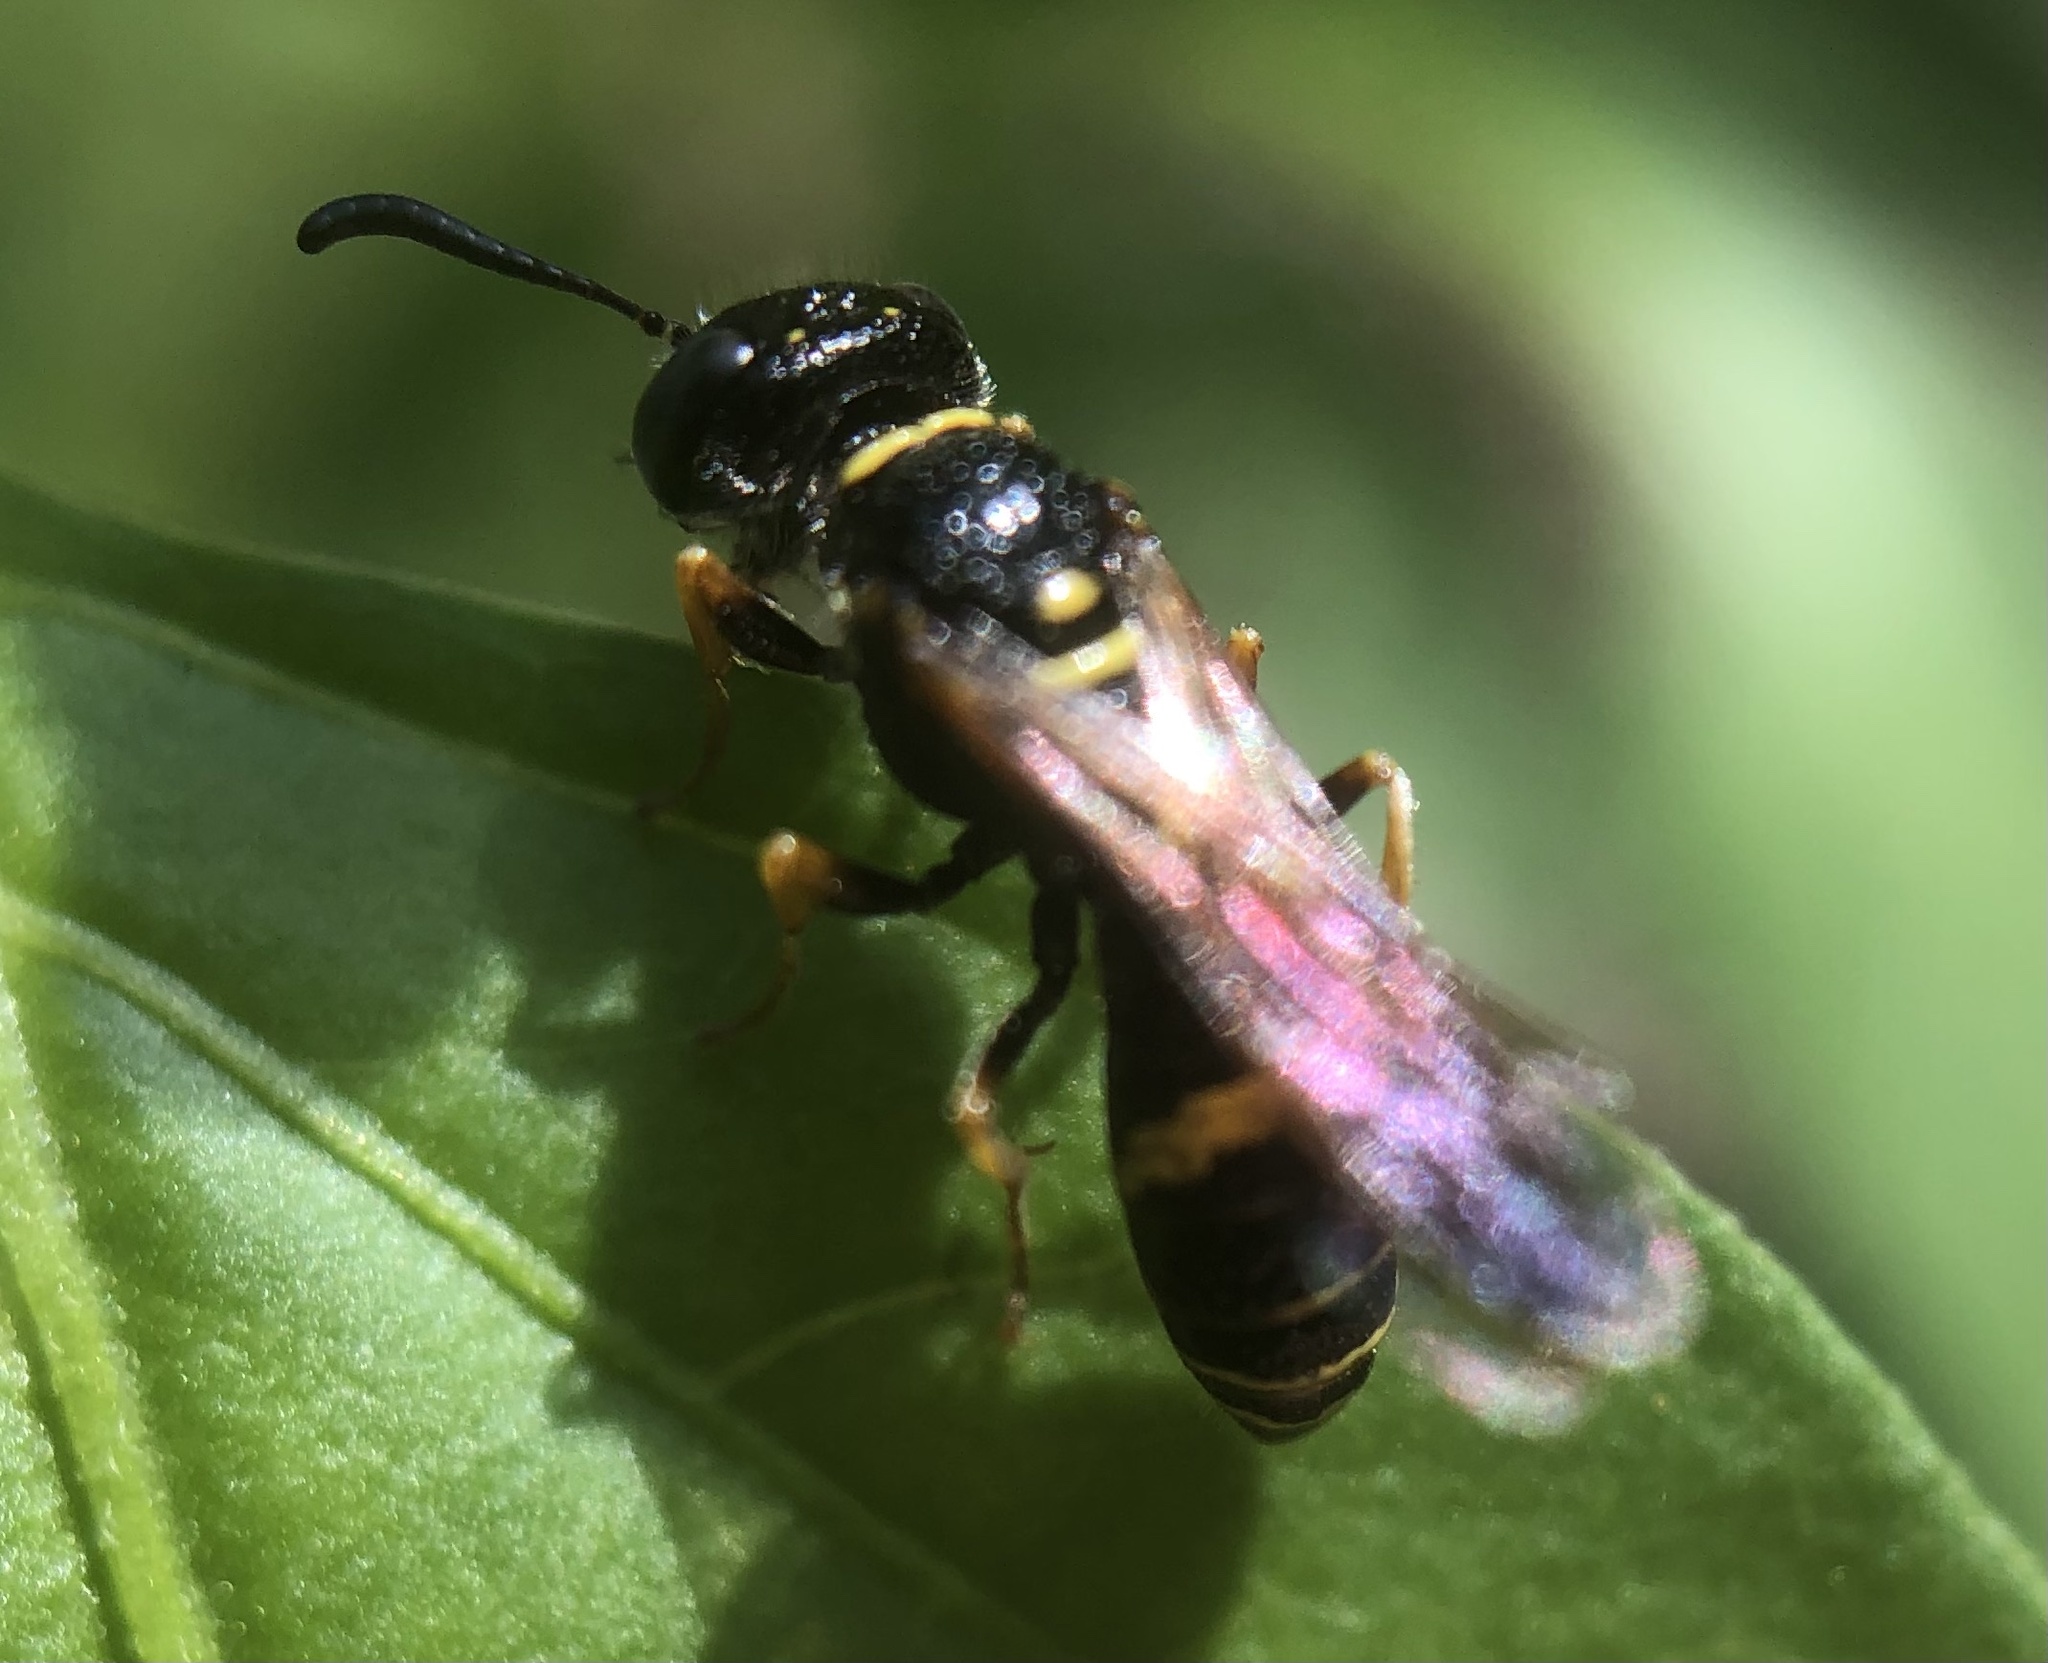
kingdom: Animalia
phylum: Arthropoda
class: Insecta
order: Hymenoptera
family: Crabronidae
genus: Philanthus
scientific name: Philanthus gibbosus
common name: Humped beewolf
